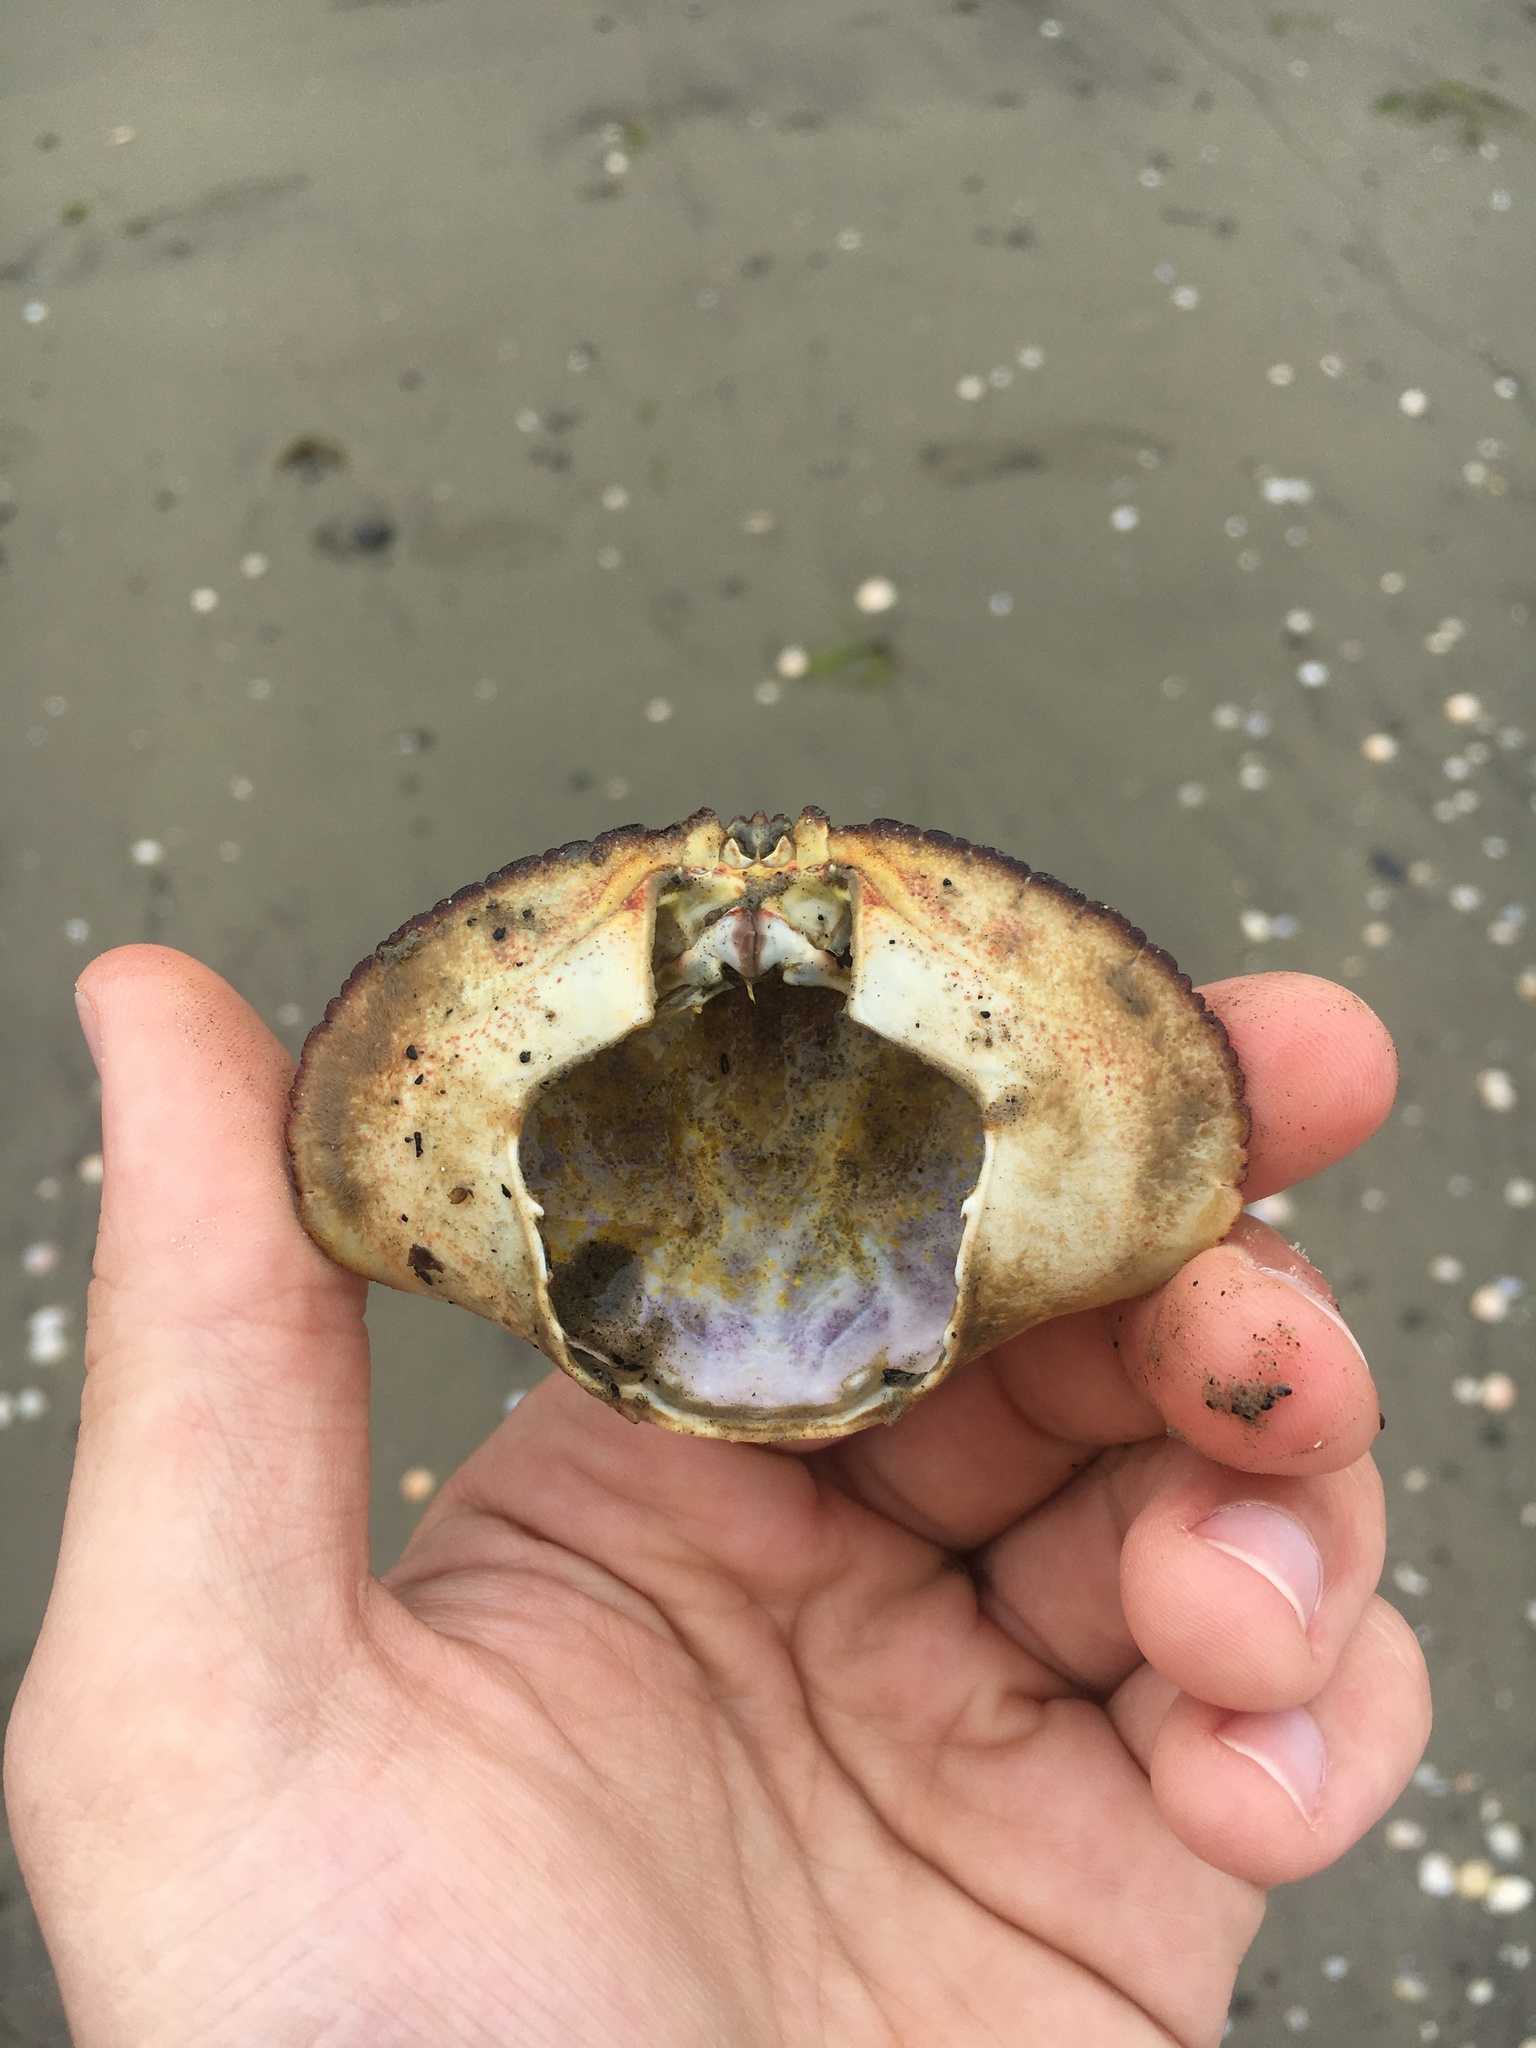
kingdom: Animalia
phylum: Arthropoda
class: Malacostraca
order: Decapoda
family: Cancridae
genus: Metacarcinus
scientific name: Metacarcinus novaezelandiae
